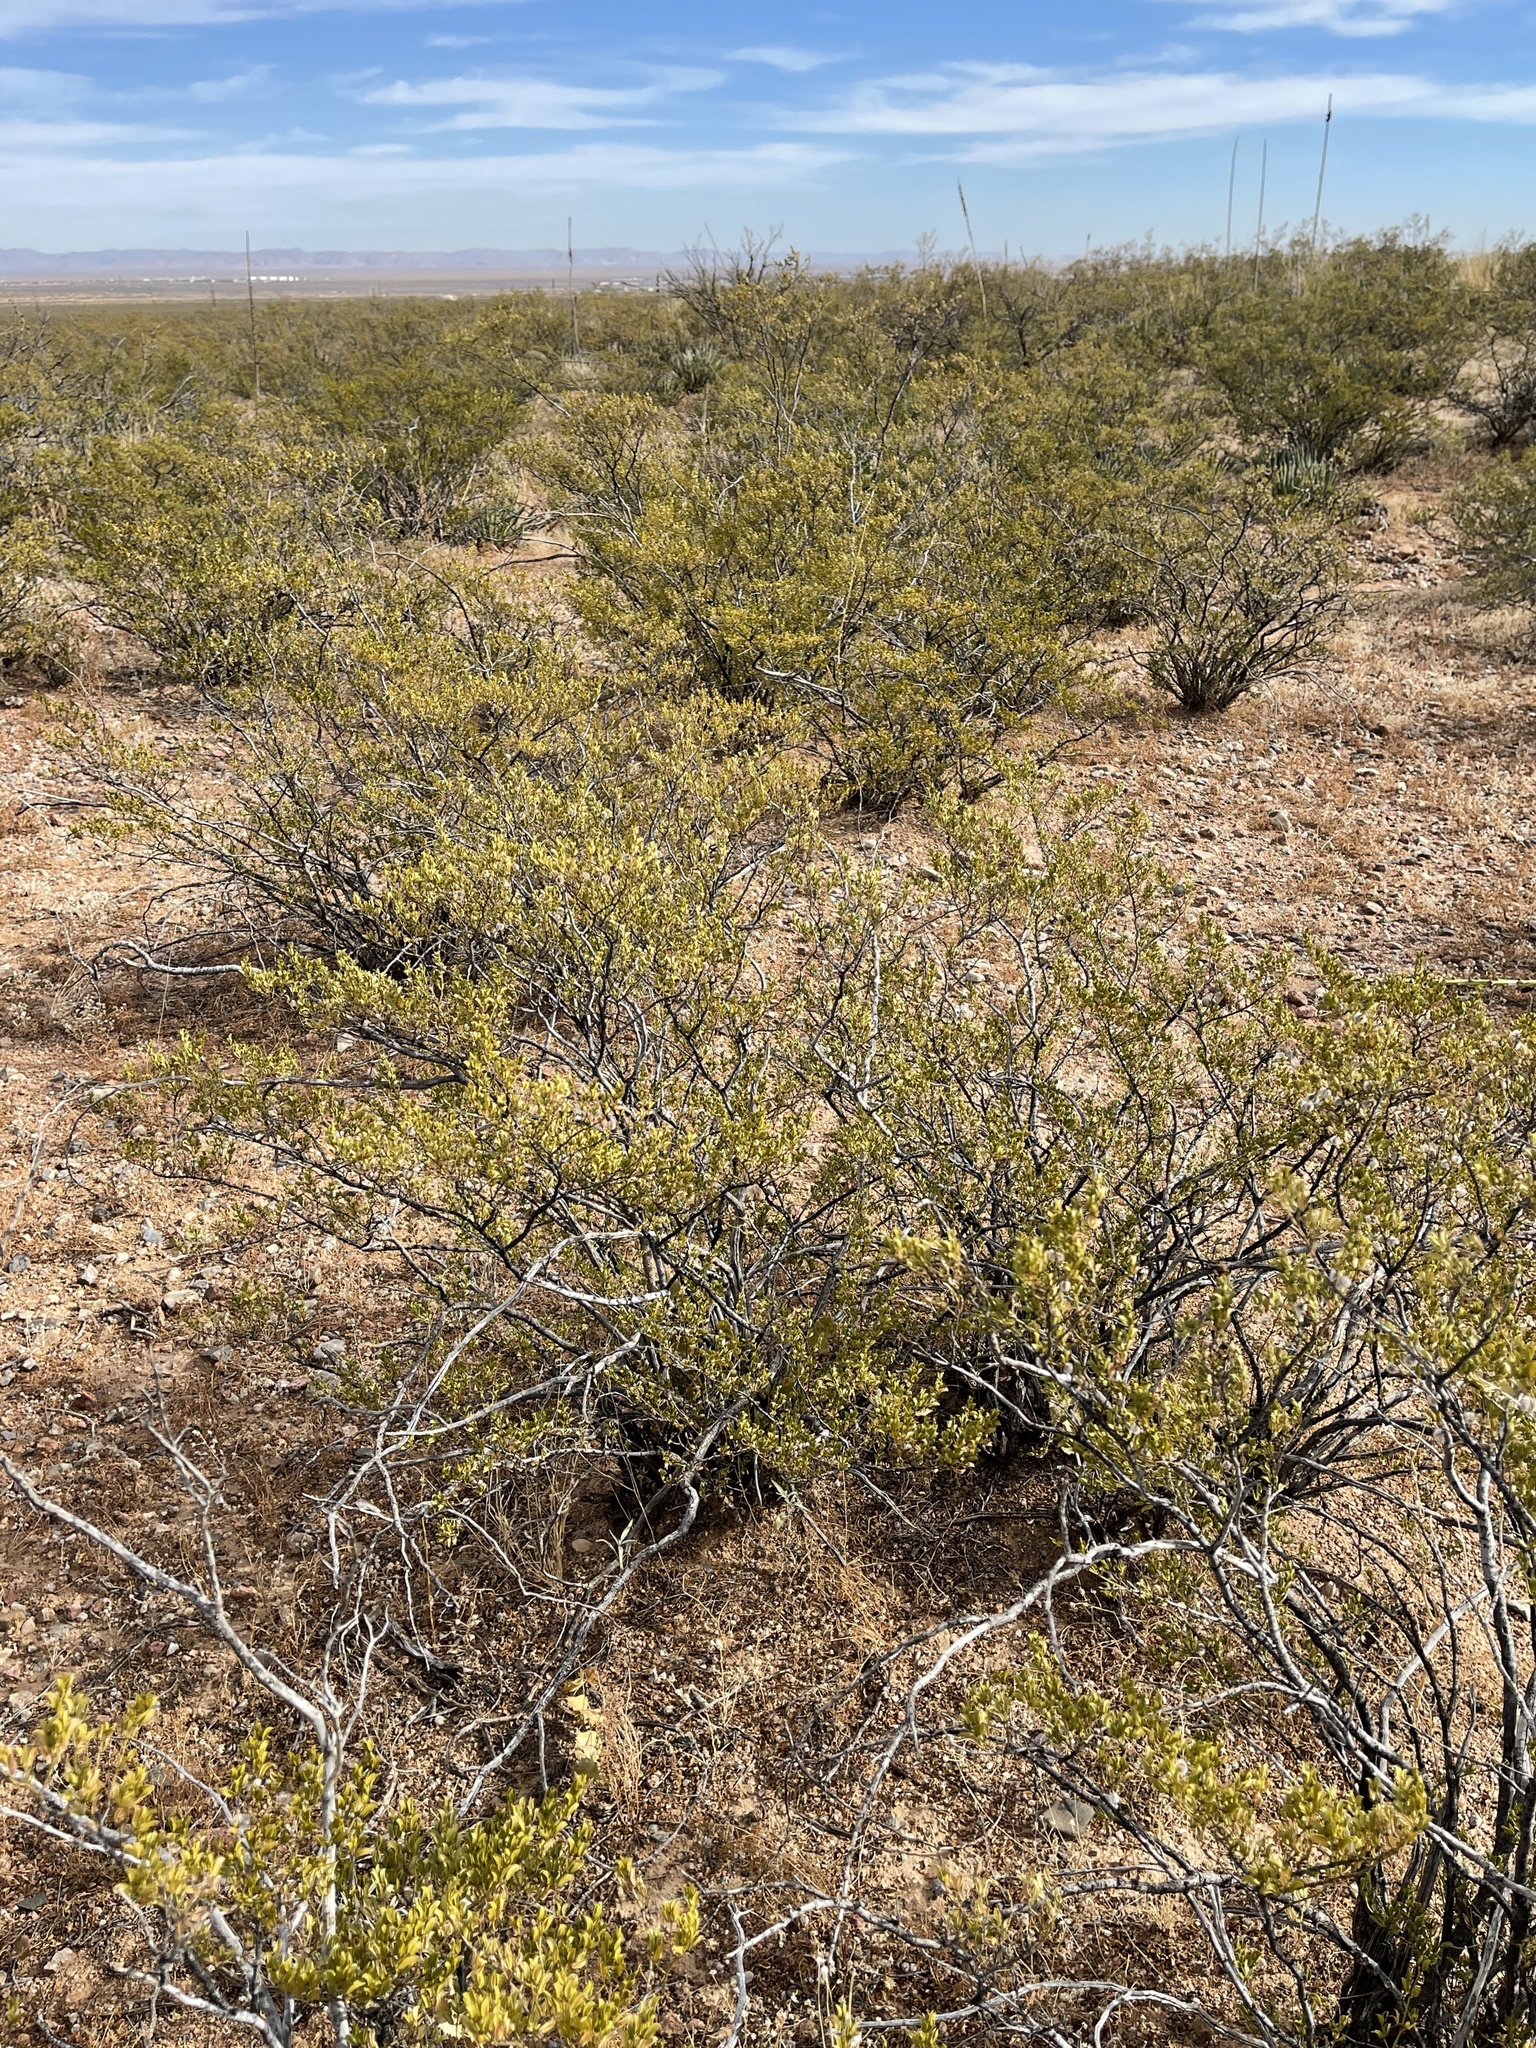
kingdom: Plantae
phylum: Tracheophyta
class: Magnoliopsida
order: Zygophyllales
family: Zygophyllaceae
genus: Larrea
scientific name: Larrea tridentata
